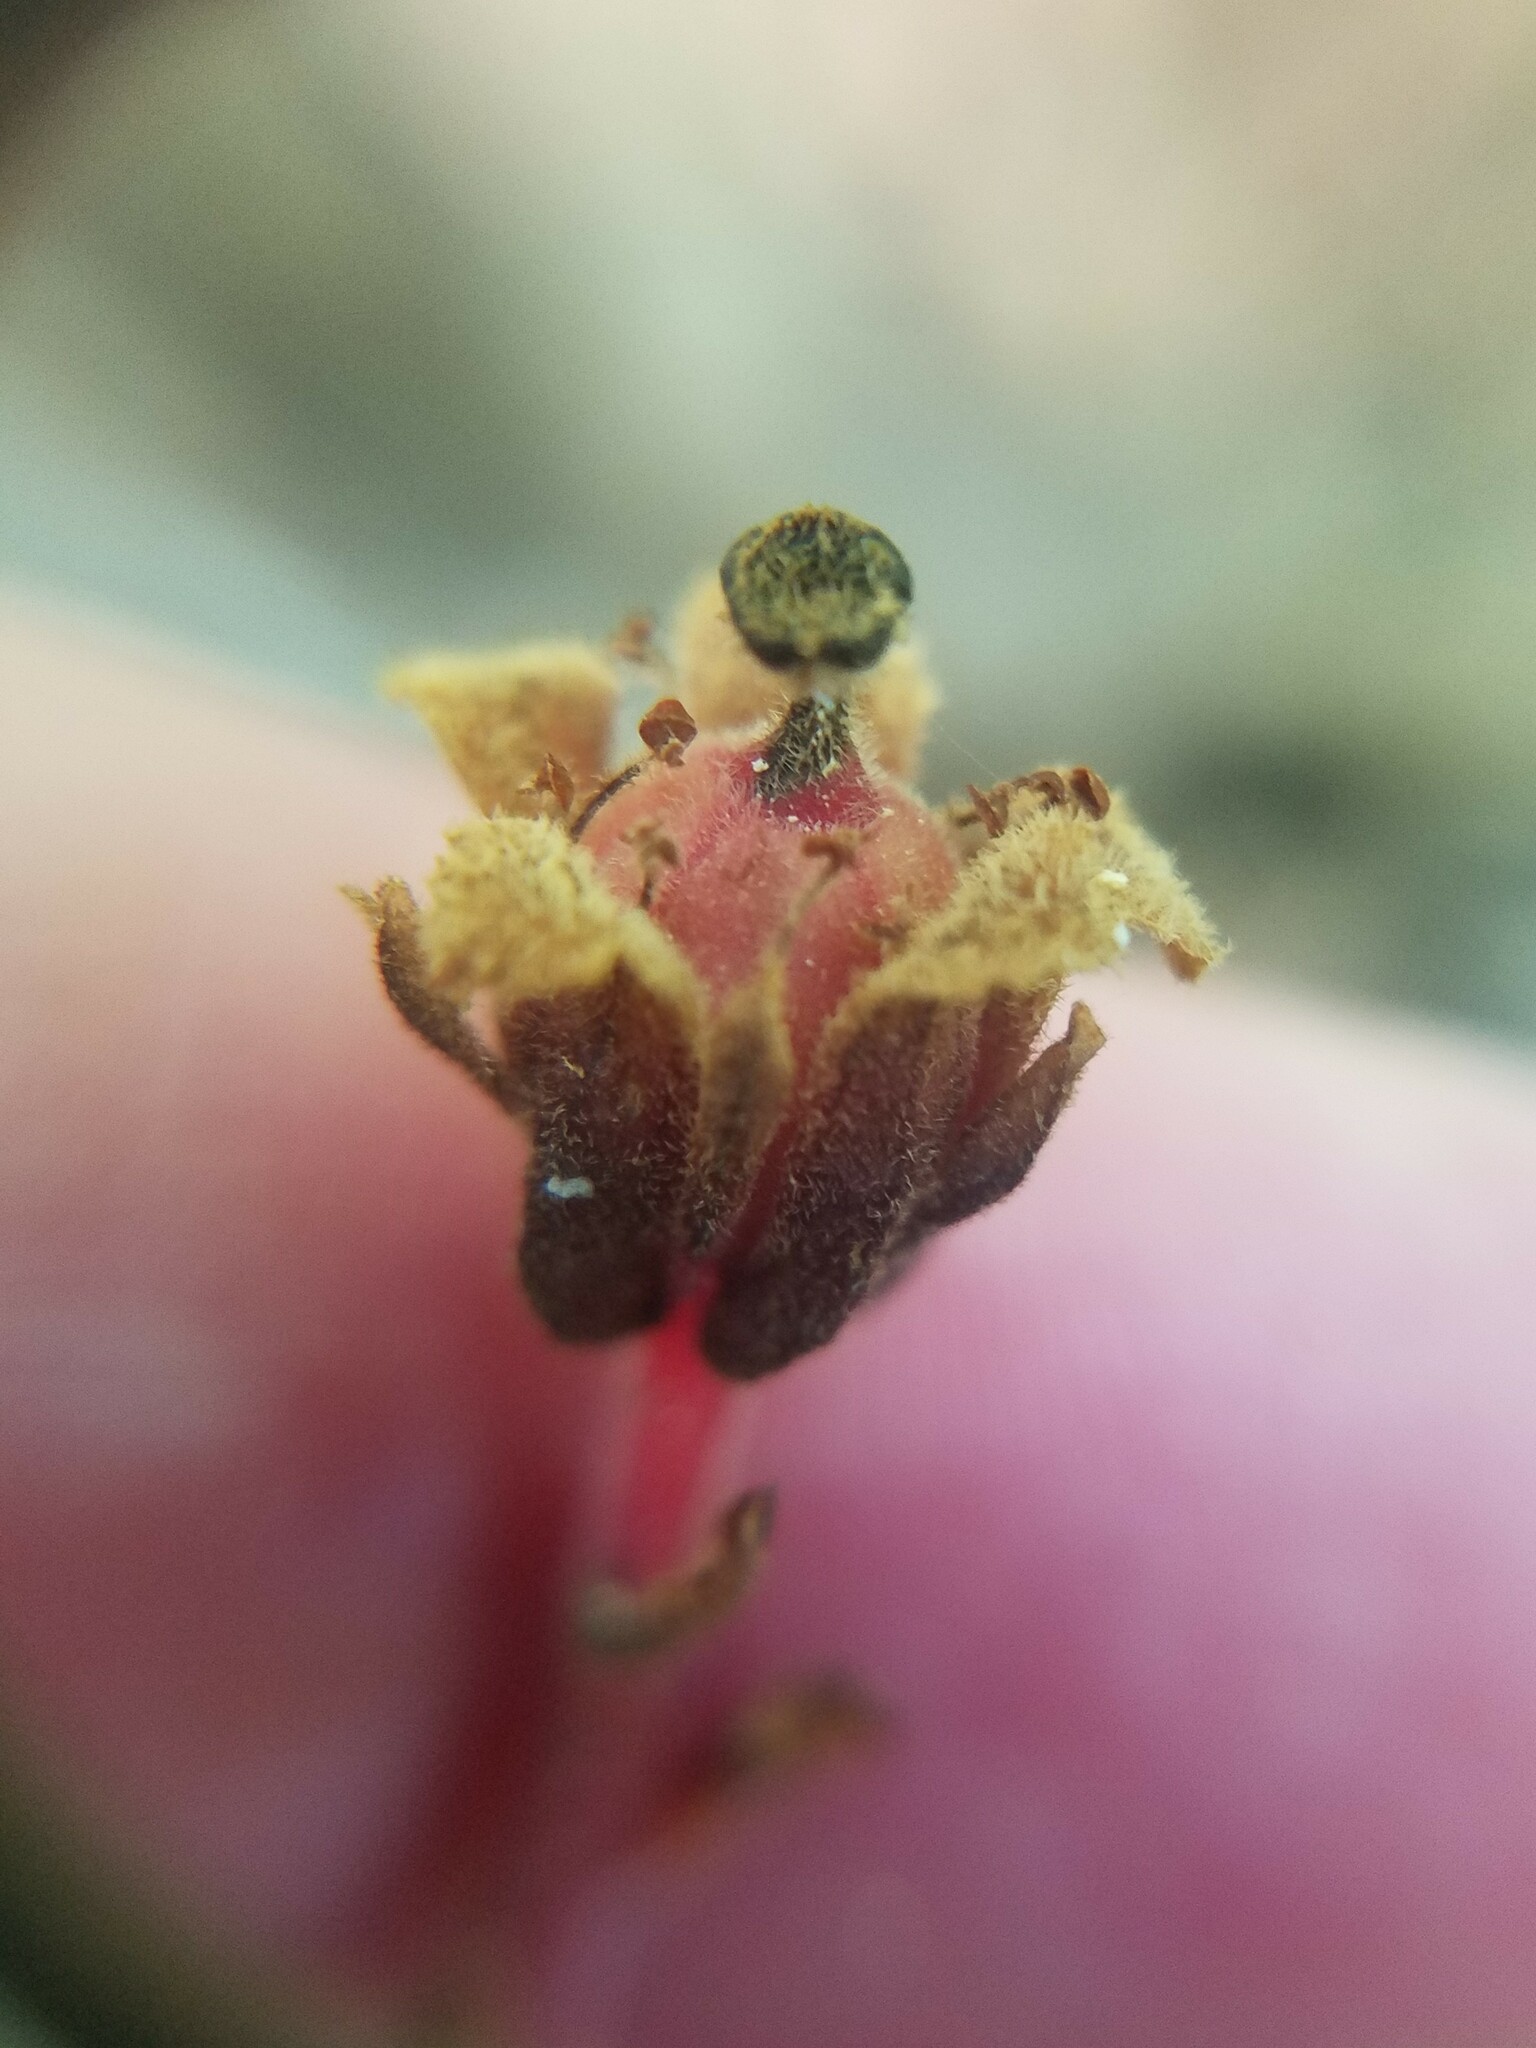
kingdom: Plantae
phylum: Tracheophyta
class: Magnoliopsida
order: Ericales
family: Ericaceae
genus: Hypopitys
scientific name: Hypopitys monotropa
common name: Yellow bird's-nest
